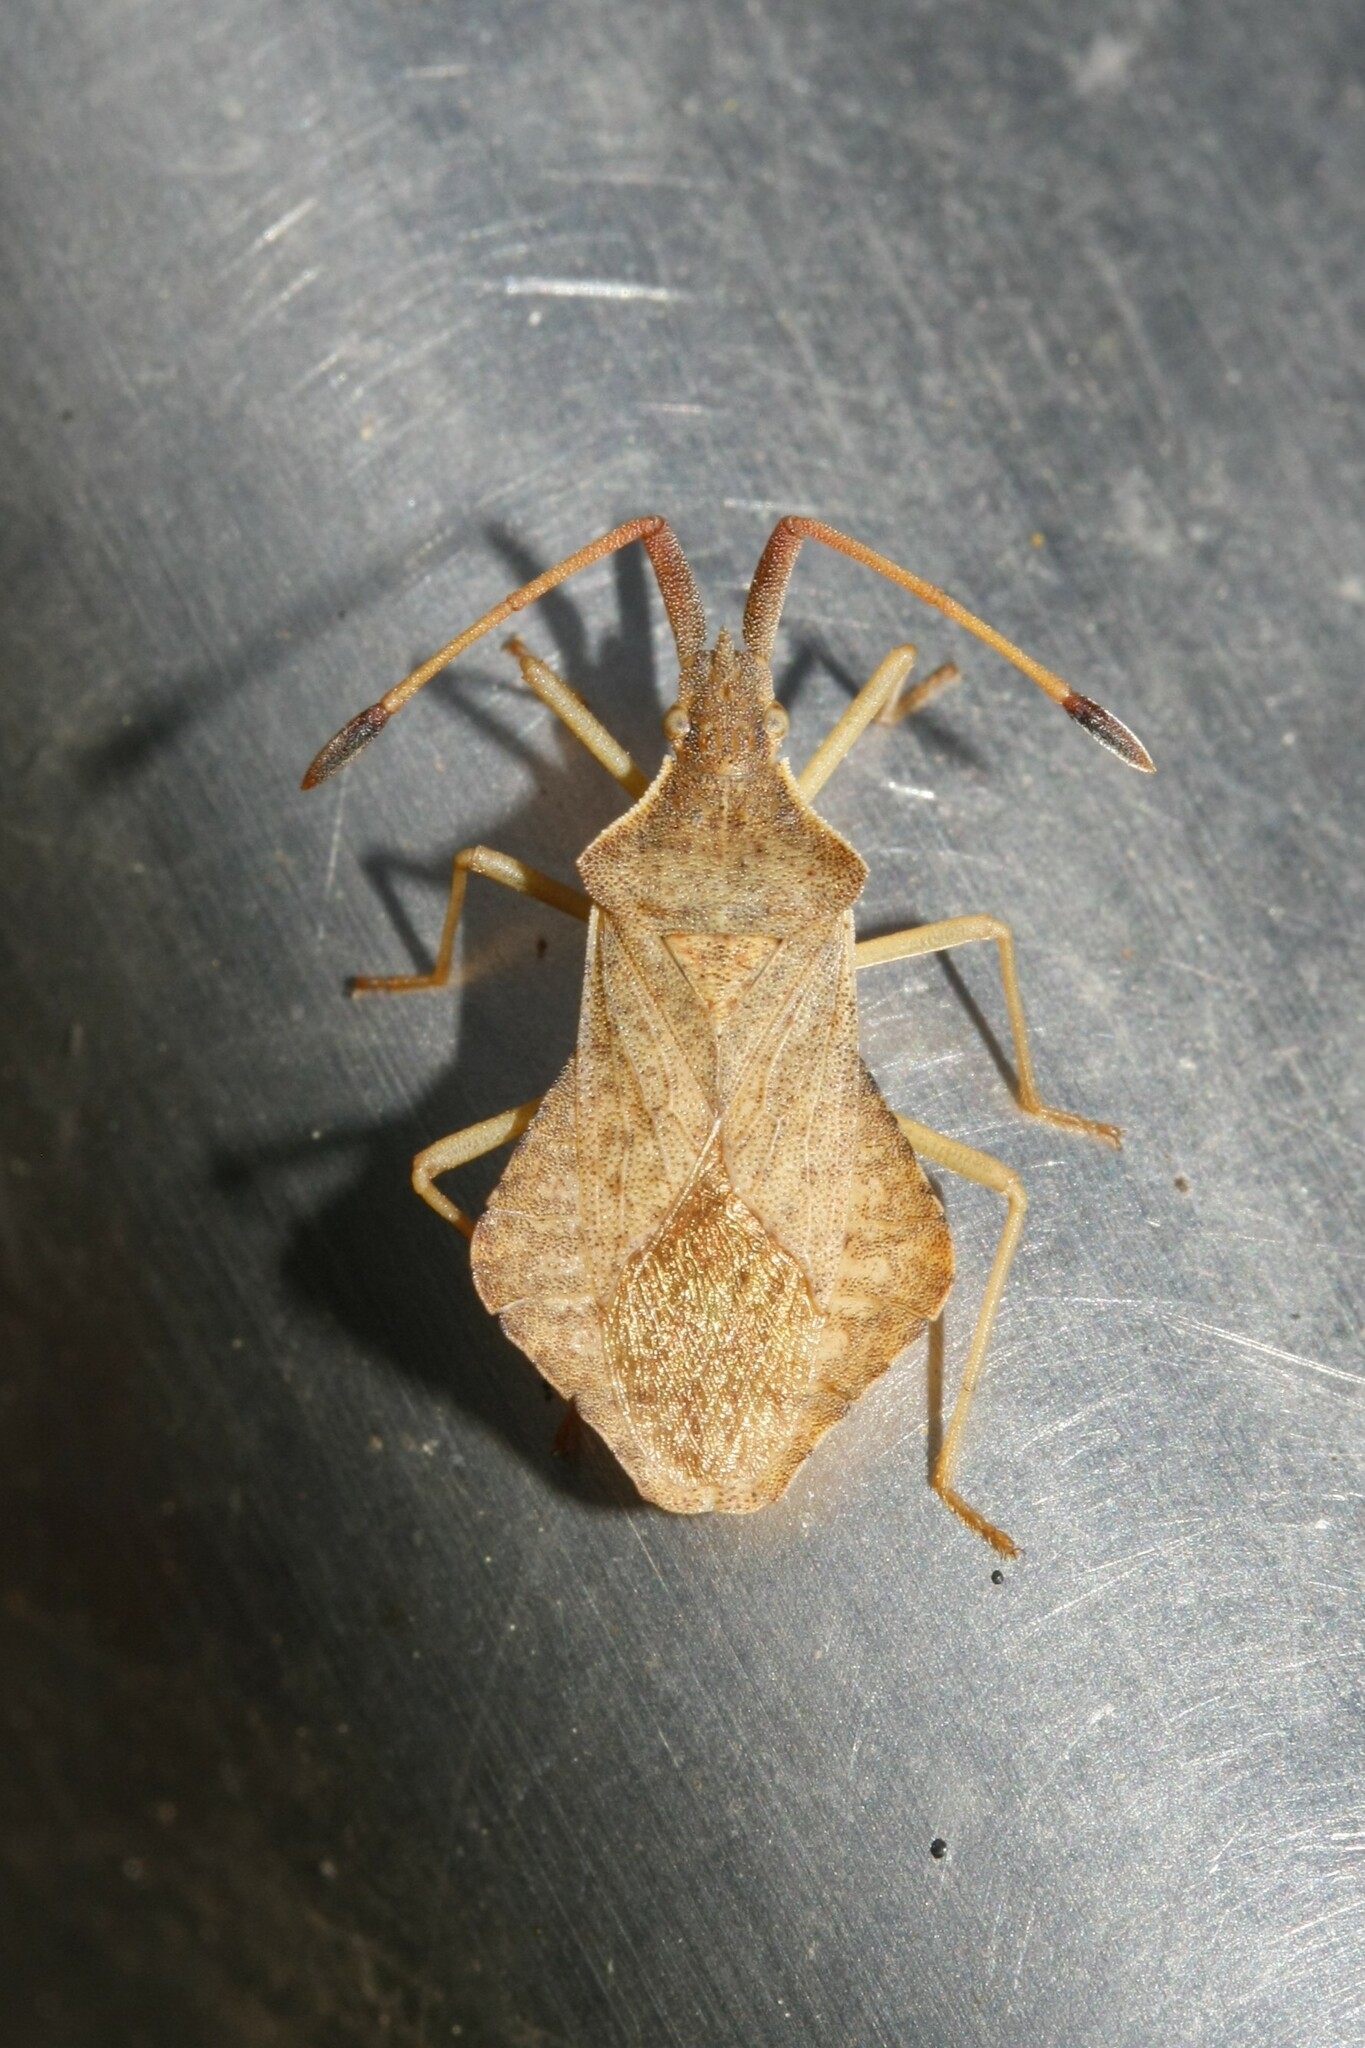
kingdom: Animalia
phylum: Arthropoda
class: Insecta
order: Hemiptera
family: Coreidae
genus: Syromastus
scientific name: Syromastus rhombeus
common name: Rhombic leatherbug
